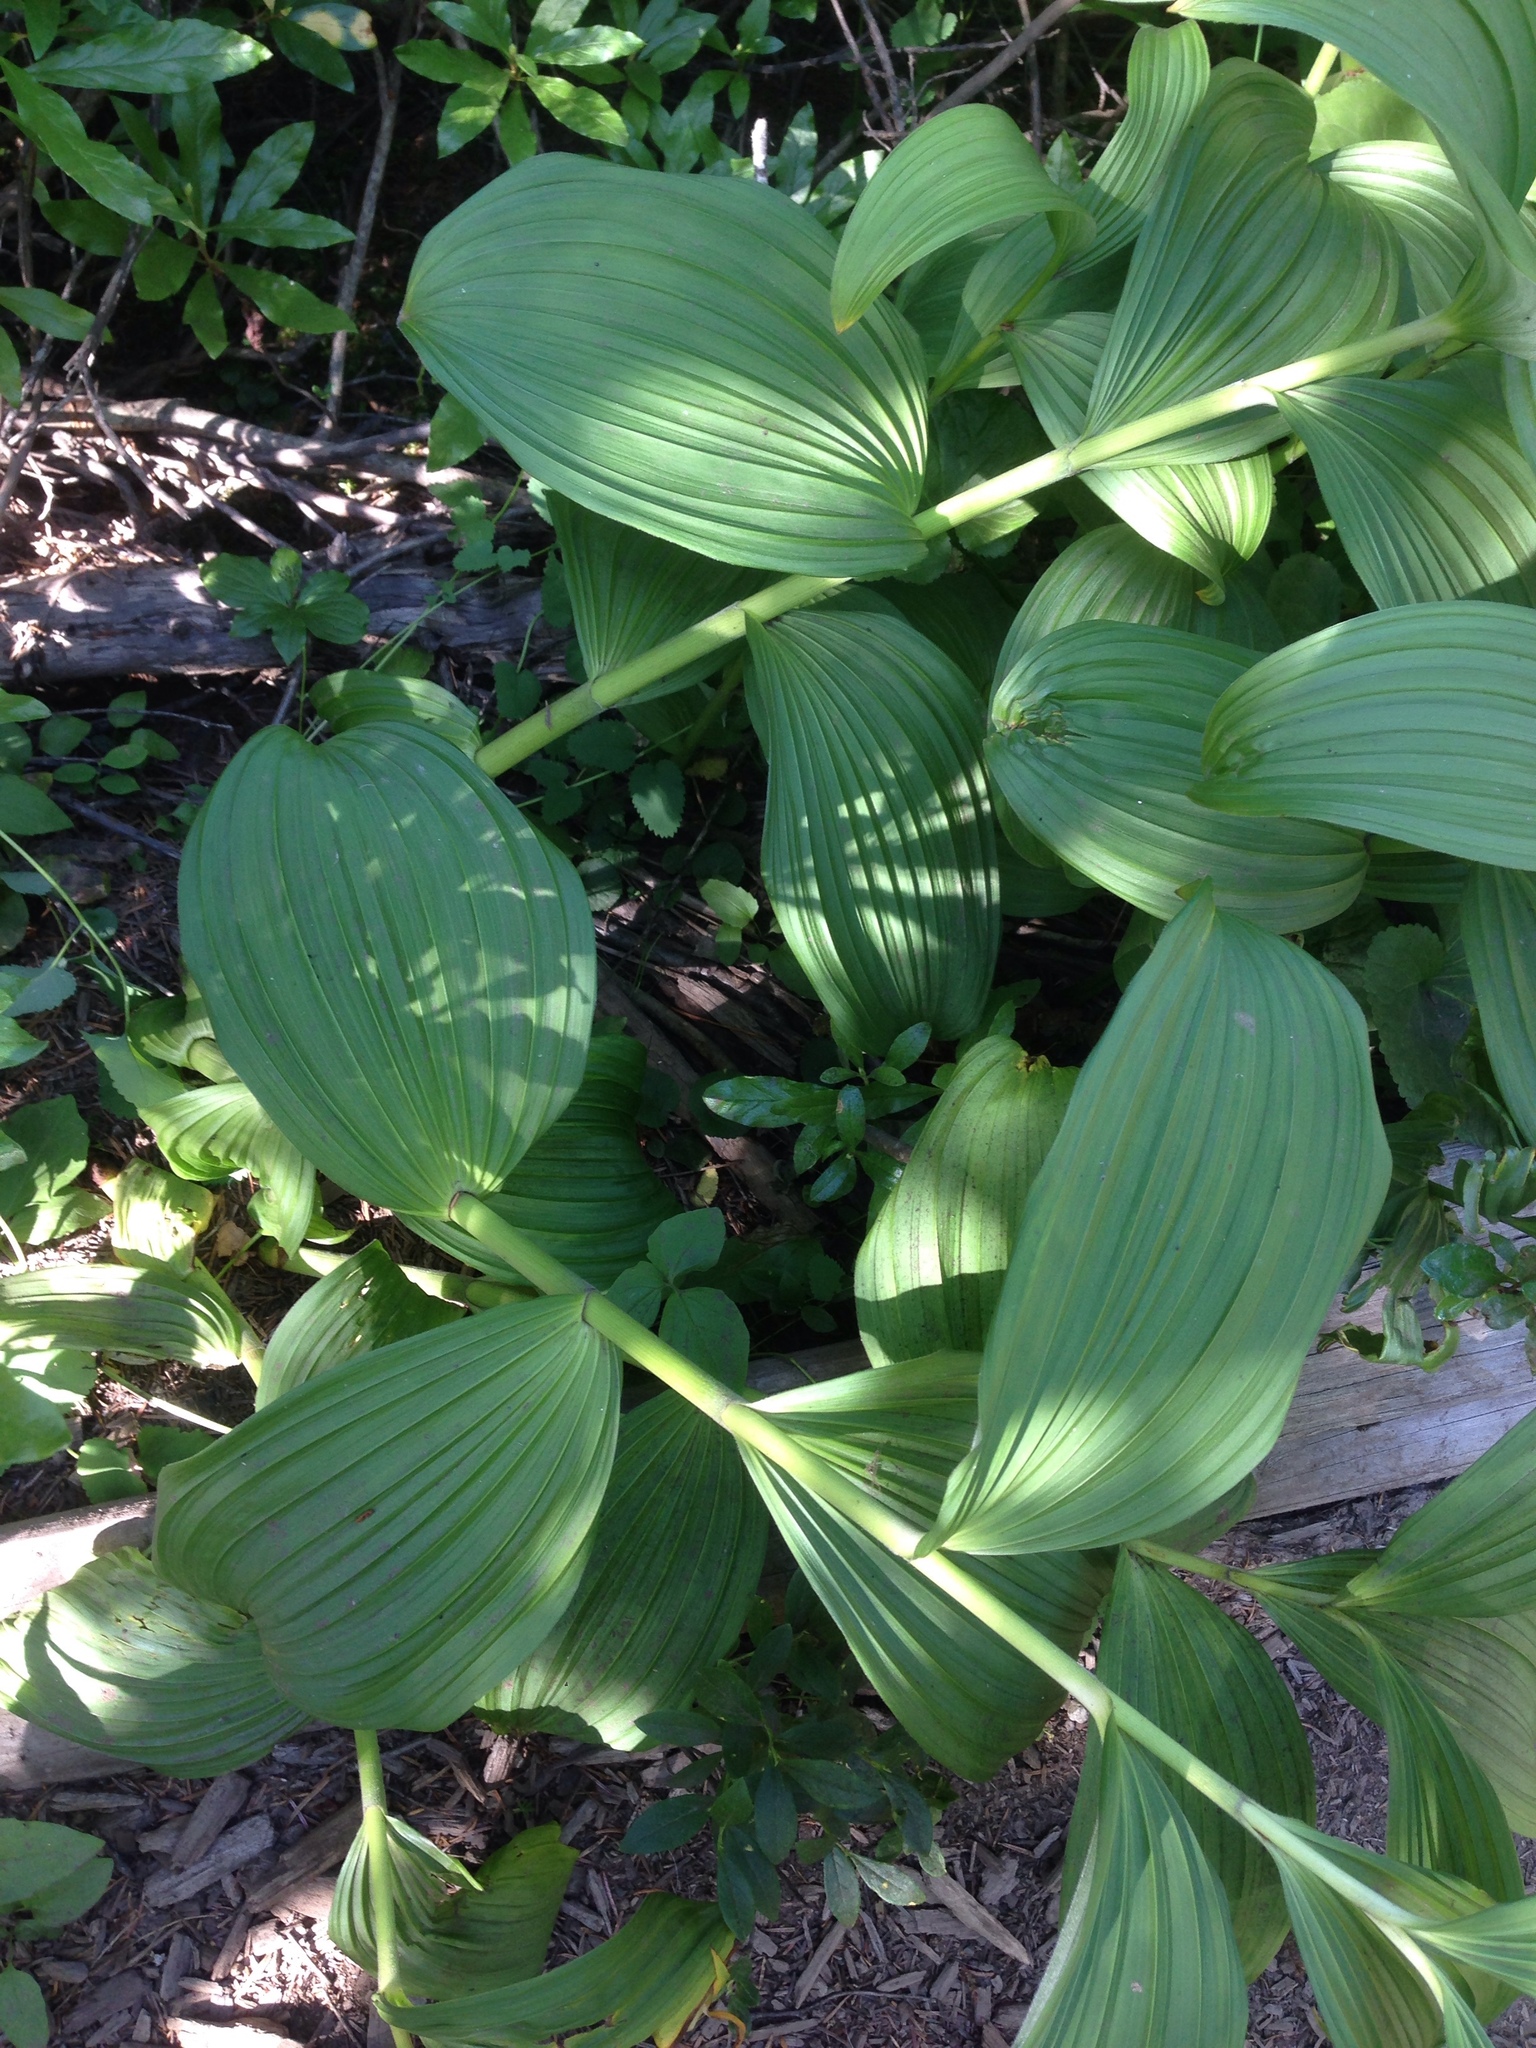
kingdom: Plantae
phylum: Tracheophyta
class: Liliopsida
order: Liliales
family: Melanthiaceae
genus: Veratrum
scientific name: Veratrum viride
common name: American false hellebore
